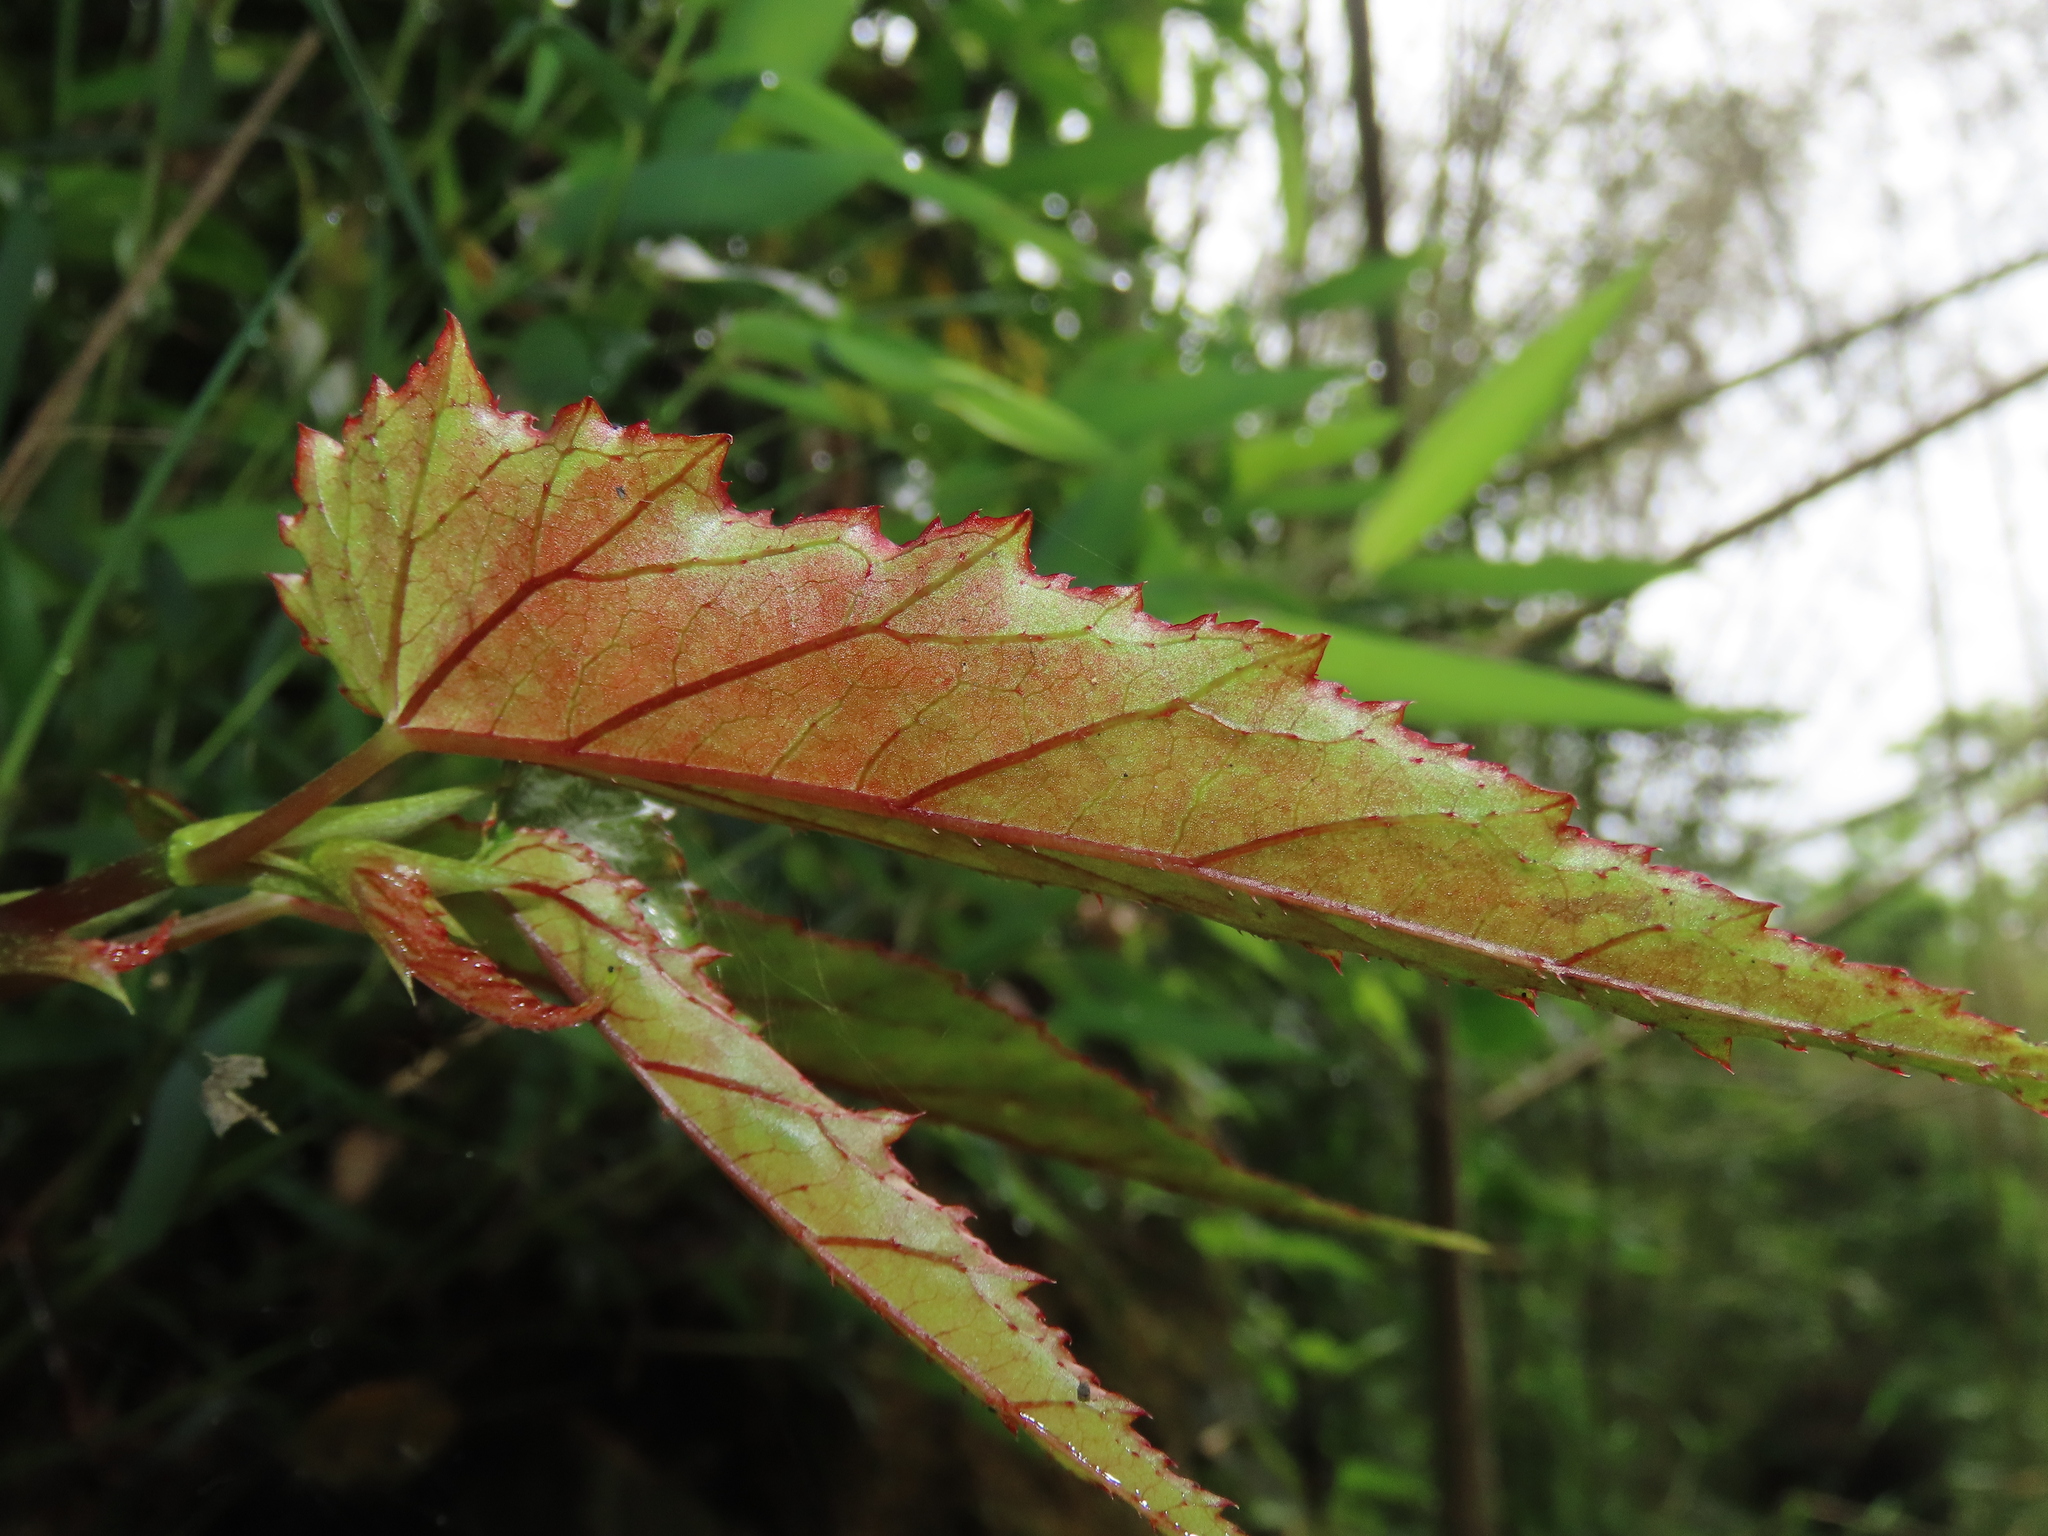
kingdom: Plantae
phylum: Tracheophyta
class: Magnoliopsida
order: Cucurbitales
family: Begoniaceae
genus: Begonia
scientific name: Begonia taiwaniana
